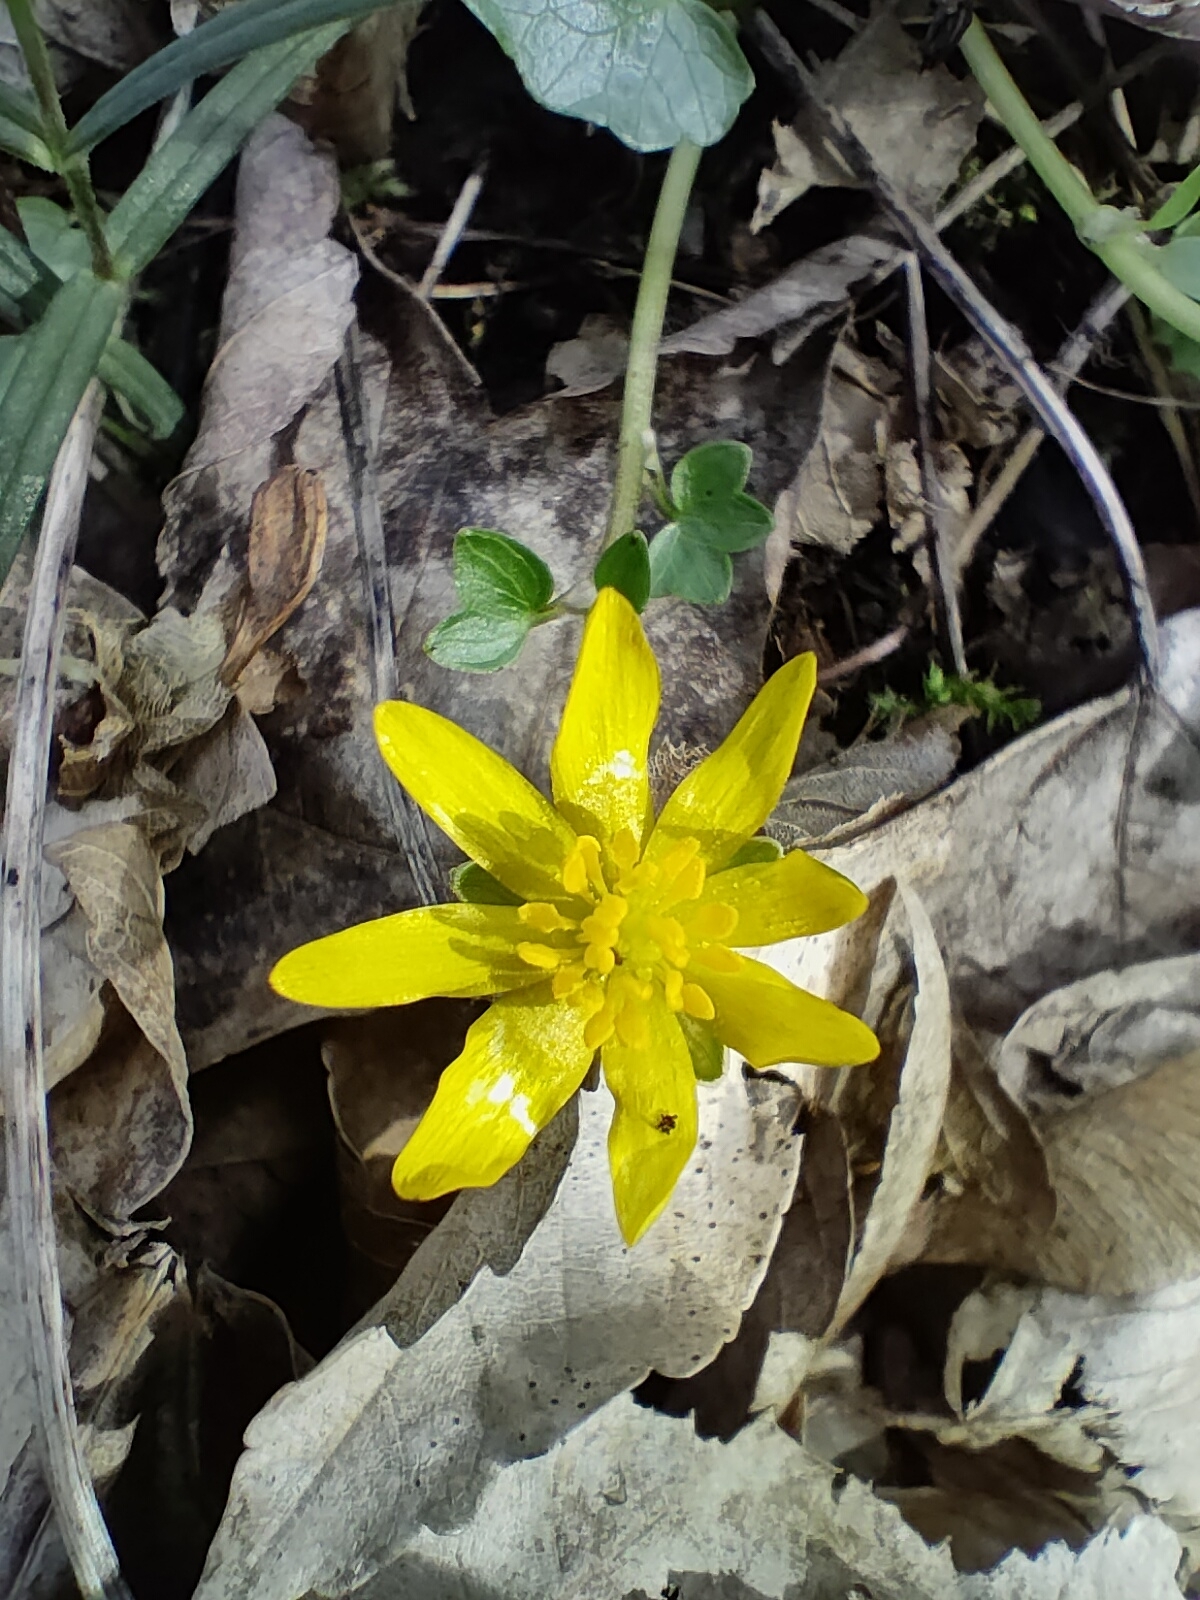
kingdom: Plantae
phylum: Tracheophyta
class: Magnoliopsida
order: Ranunculales
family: Ranunculaceae
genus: Ficaria
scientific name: Ficaria verna
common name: Lesser celandine
